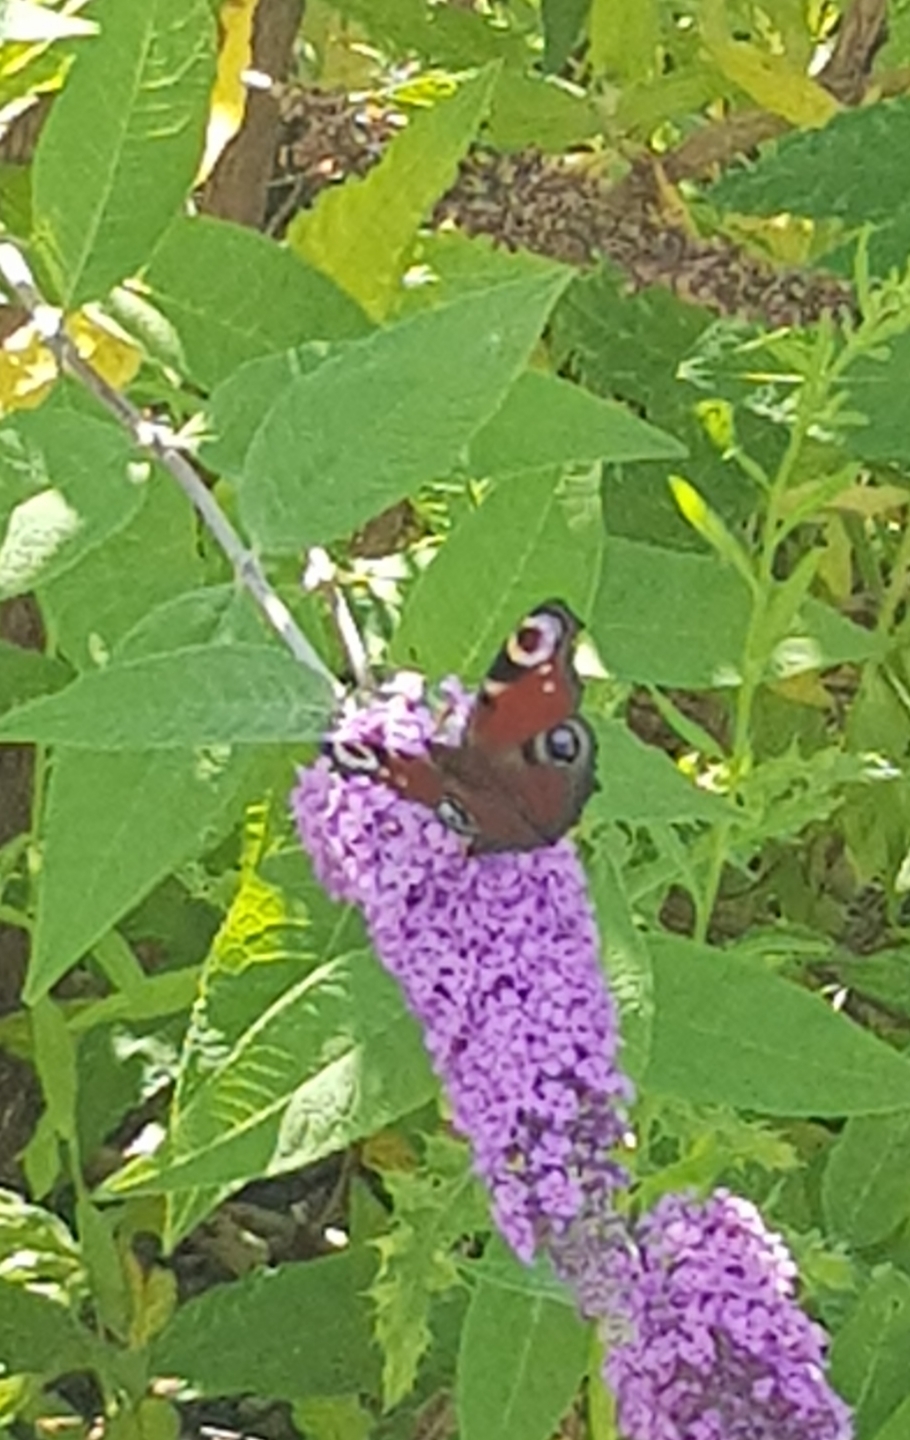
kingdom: Animalia
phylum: Arthropoda
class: Insecta
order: Lepidoptera
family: Nymphalidae
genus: Aglais
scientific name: Aglais io
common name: Peacock
